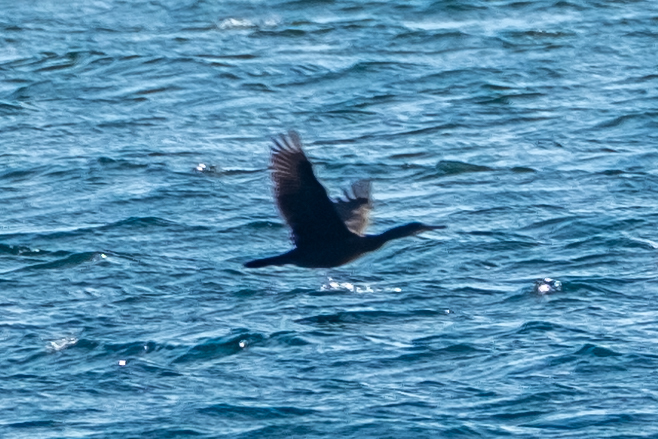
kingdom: Animalia
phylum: Chordata
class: Aves
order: Suliformes
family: Phalacrocoracidae
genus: Phalacrocorax
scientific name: Phalacrocorax aristotelis
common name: European shag
